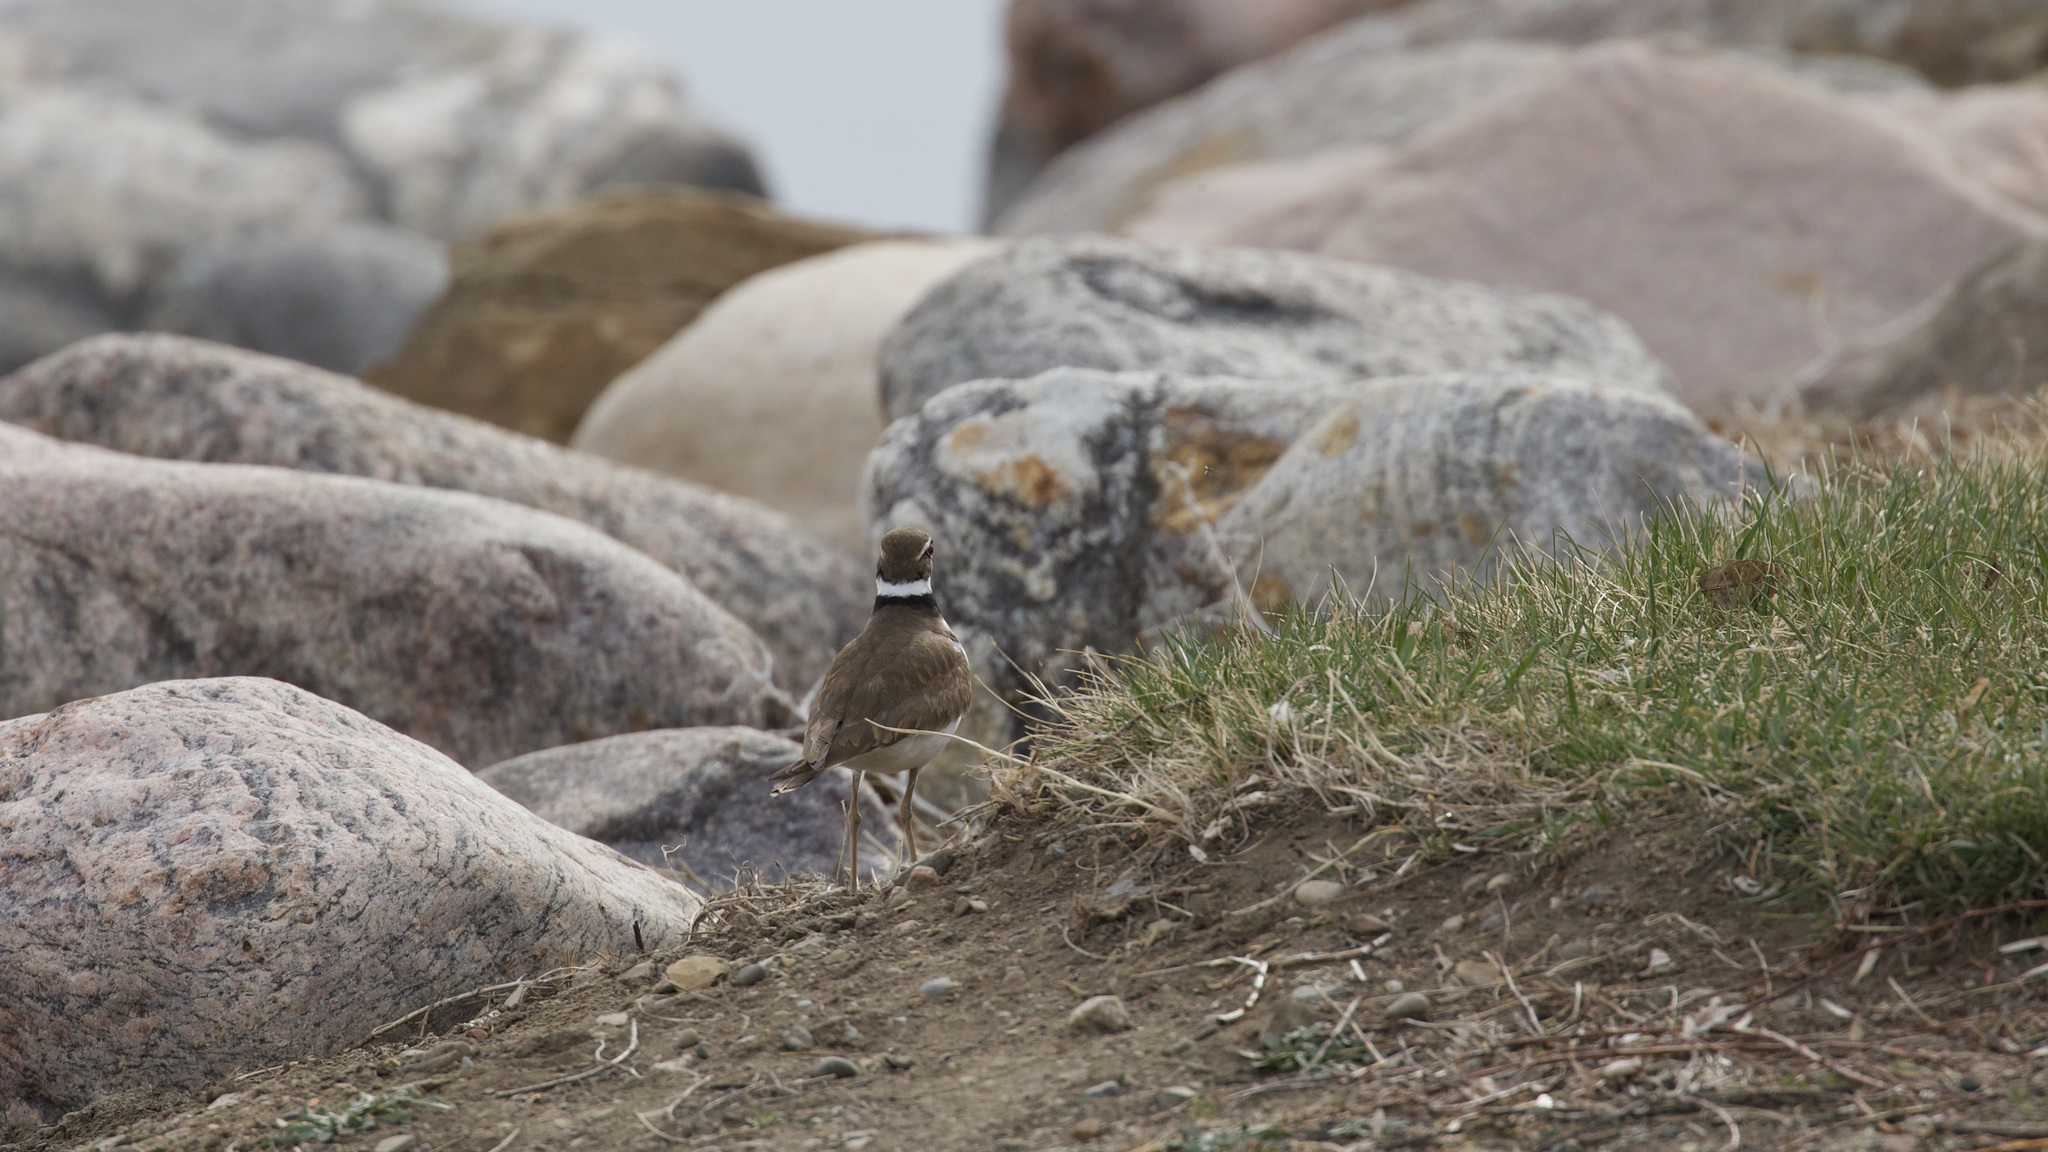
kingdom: Animalia
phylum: Chordata
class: Aves
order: Charadriiformes
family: Charadriidae
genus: Charadrius
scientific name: Charadrius vociferus
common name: Killdeer
